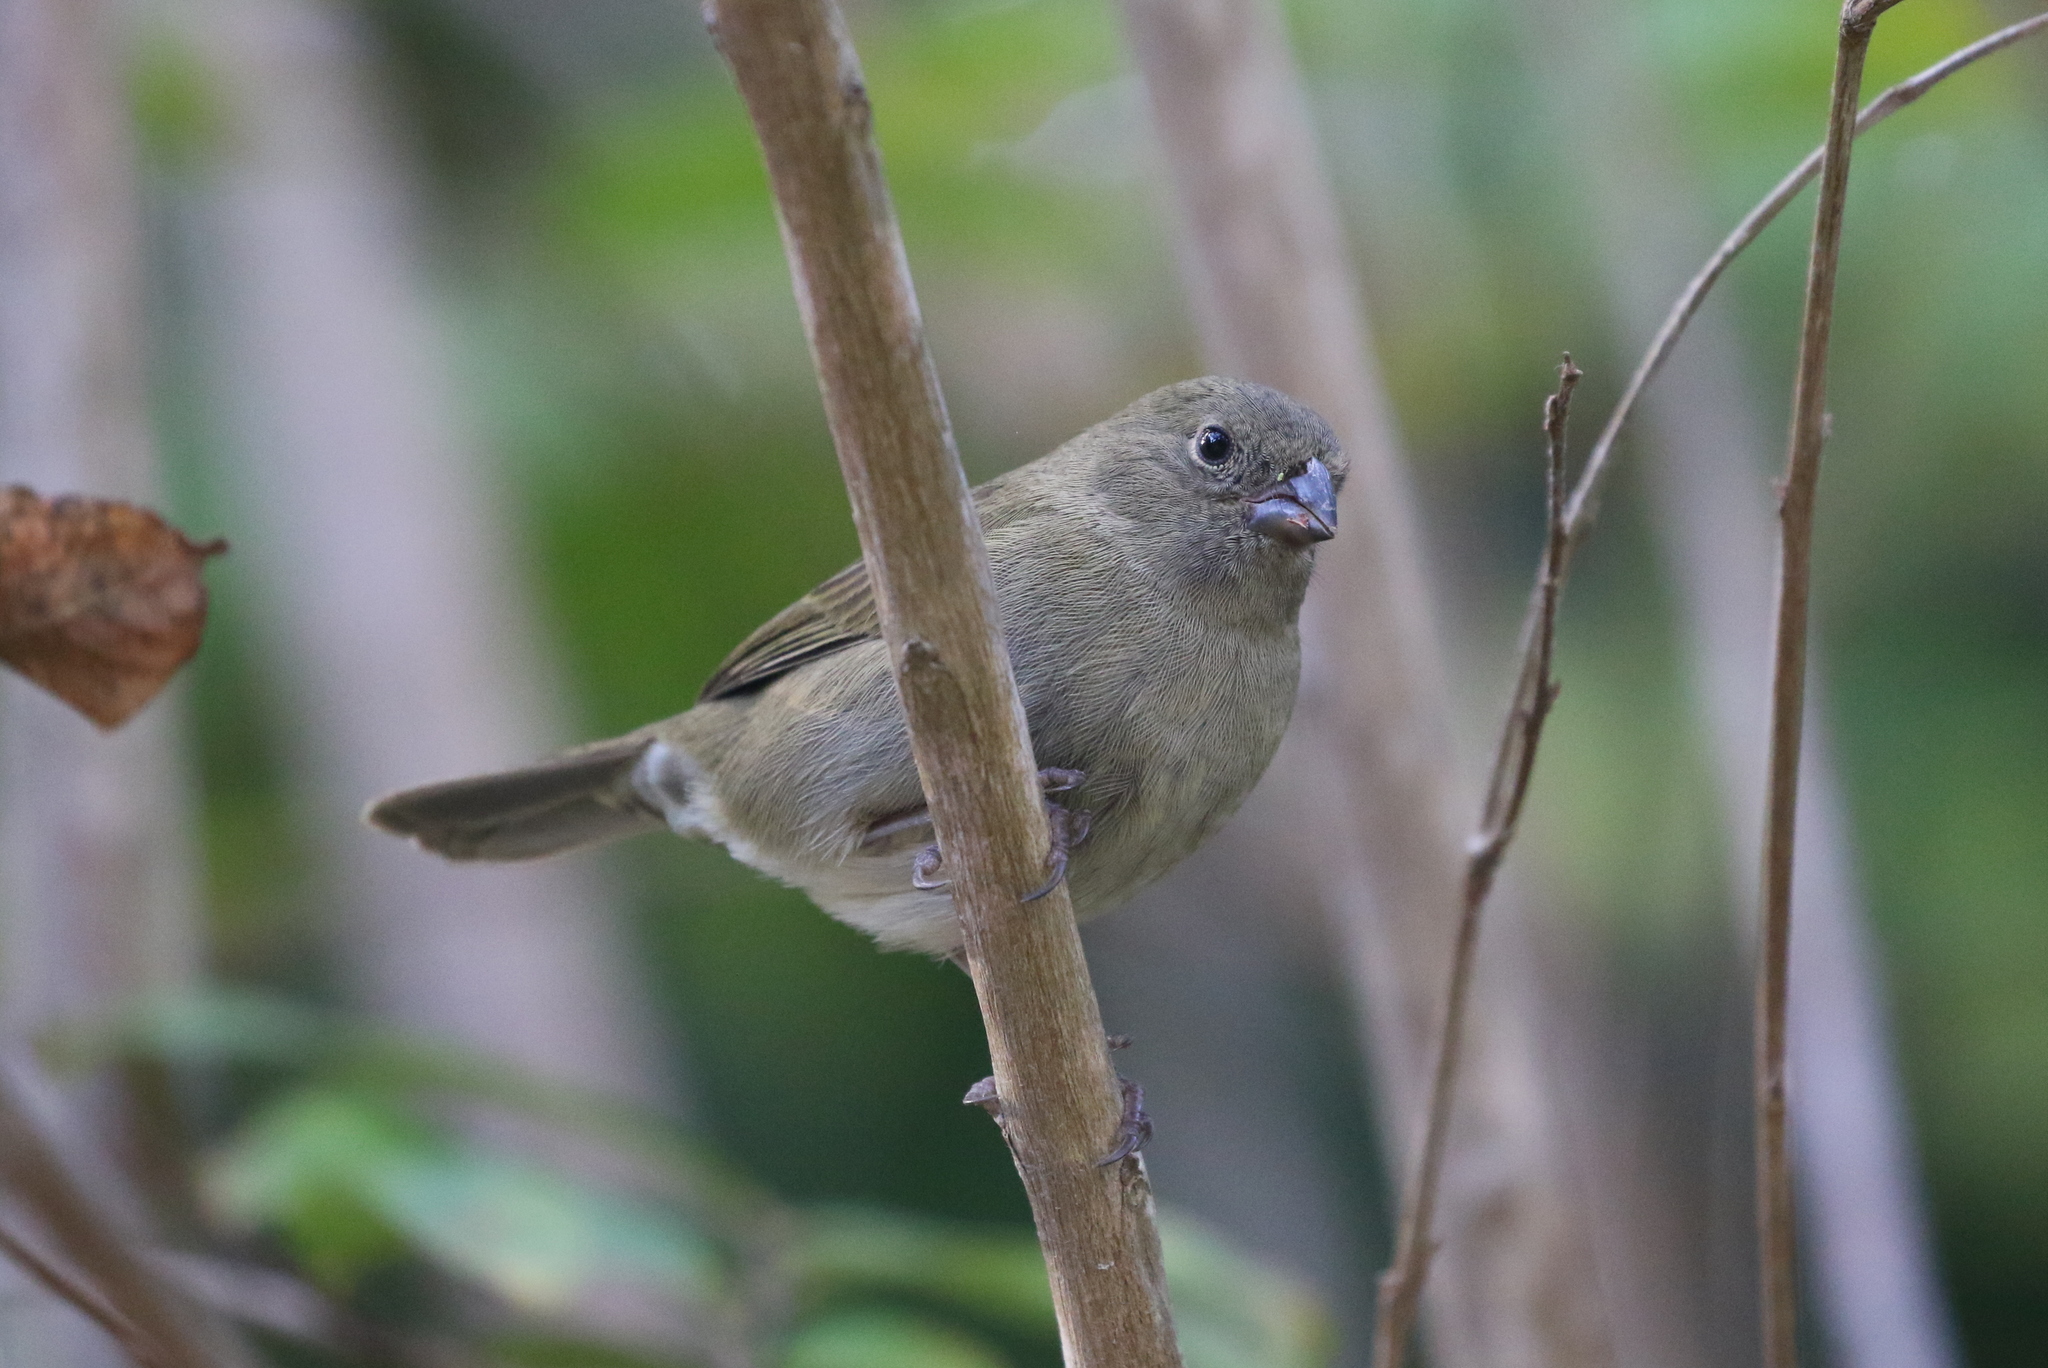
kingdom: Animalia
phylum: Chordata
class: Aves
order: Passeriformes
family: Thraupidae
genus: Melanospiza
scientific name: Melanospiza bicolor
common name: Black-faced grassquit
